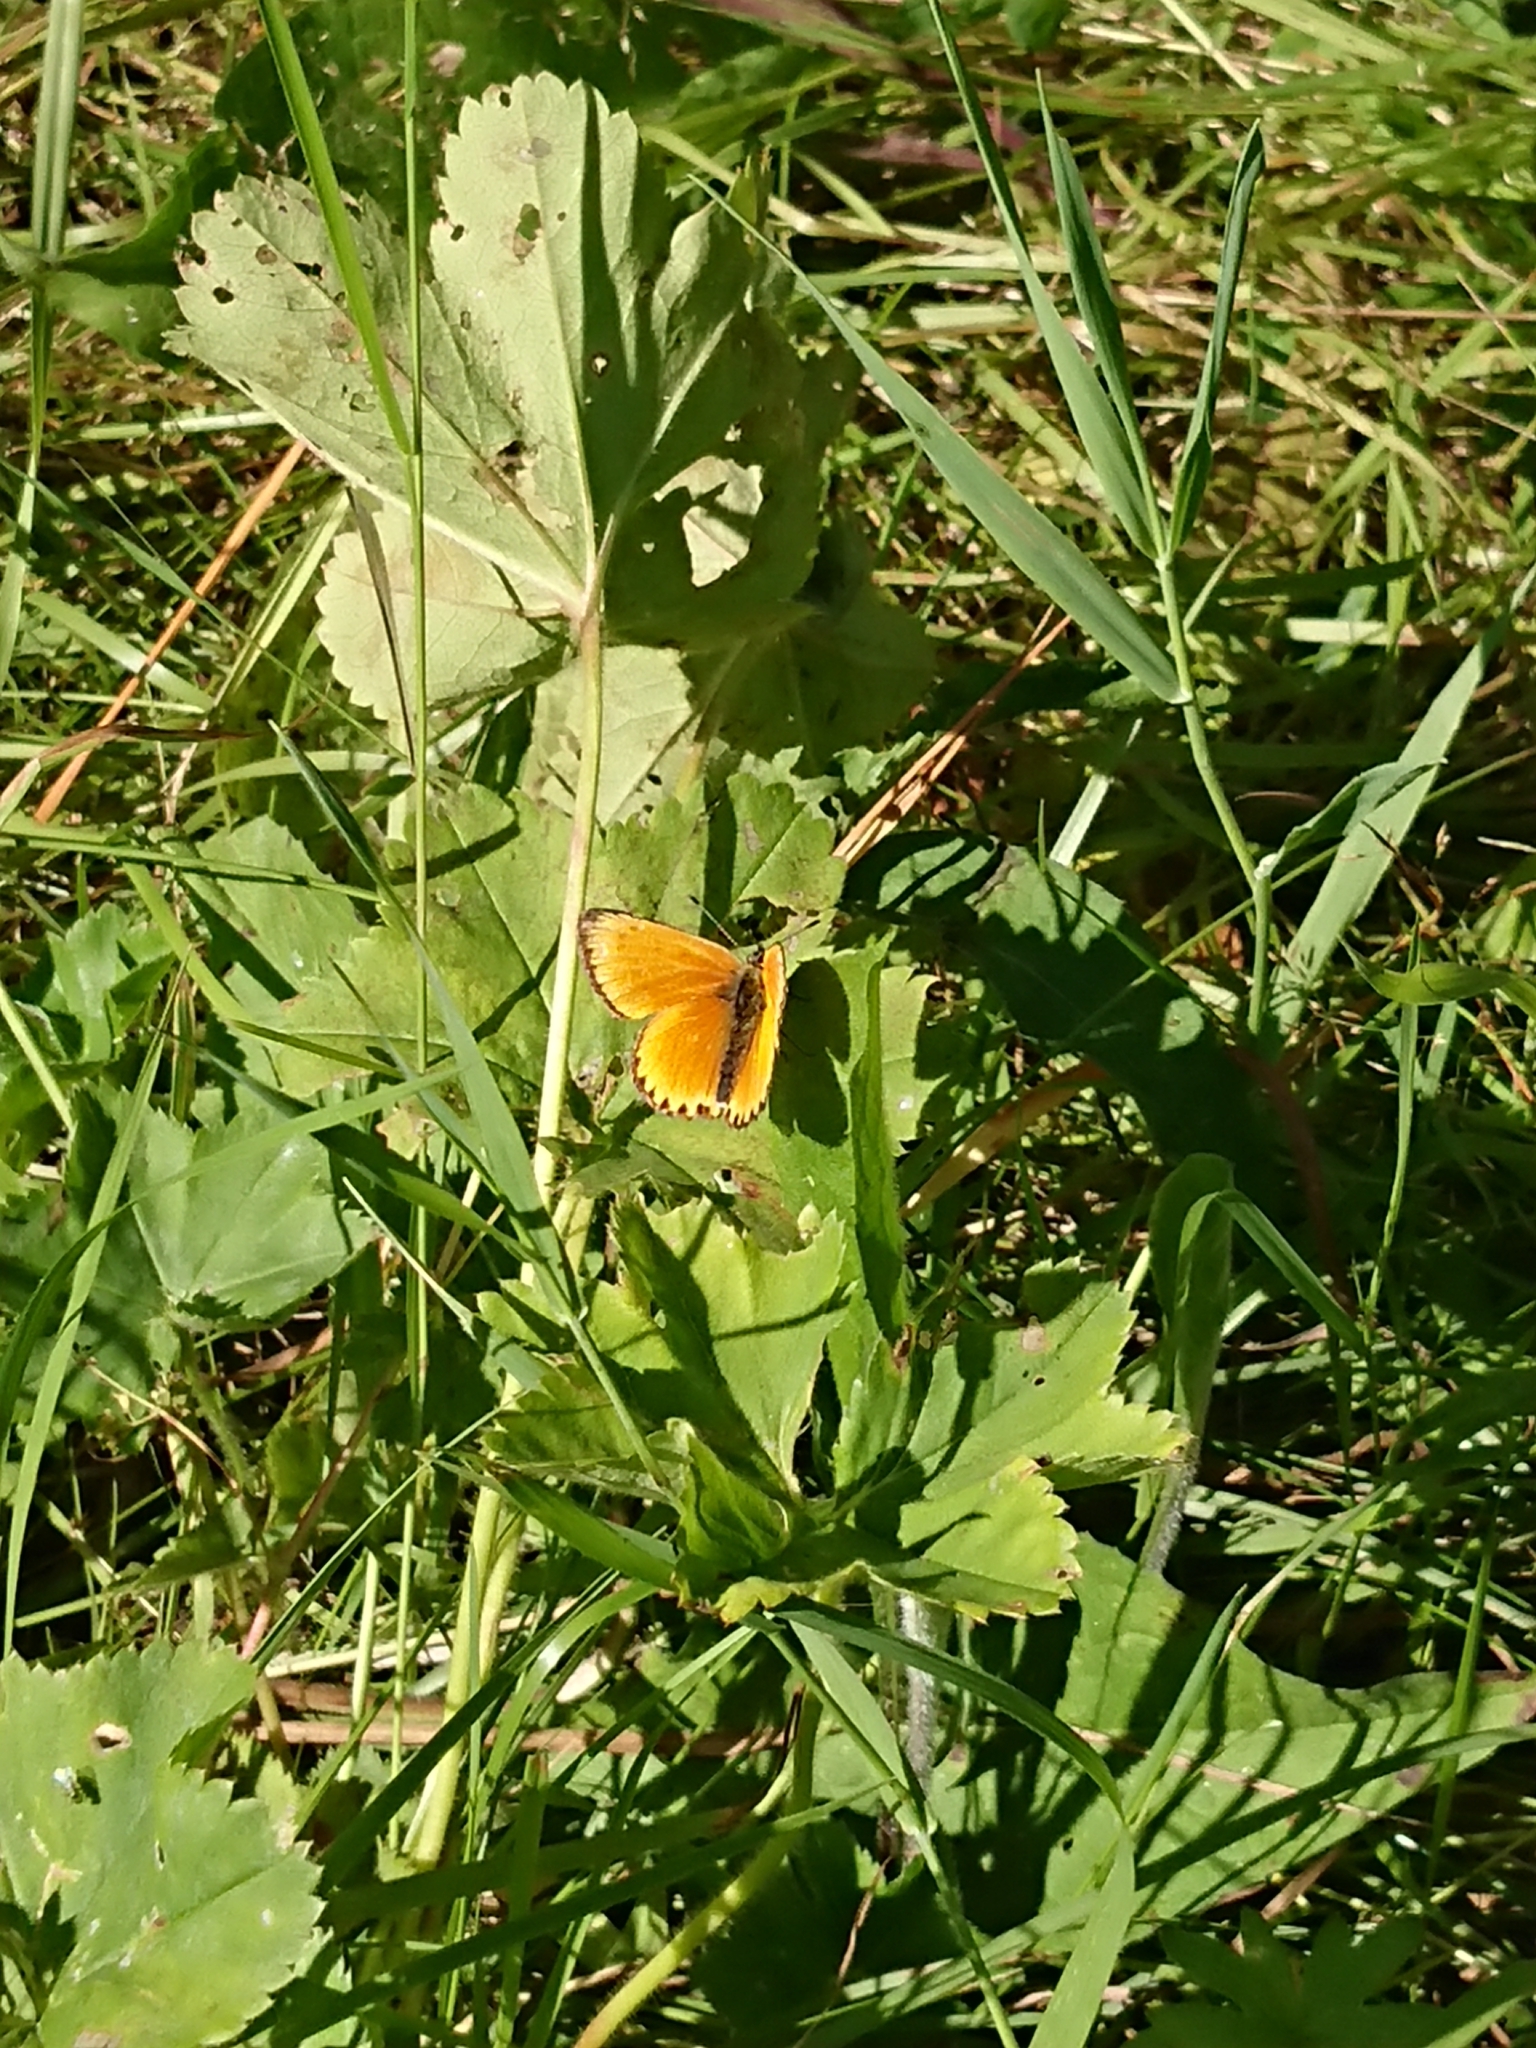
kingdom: Animalia
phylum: Arthropoda
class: Insecta
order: Lepidoptera
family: Lycaenidae
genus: Lycaena
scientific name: Lycaena virgaureae
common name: Scarce copper
